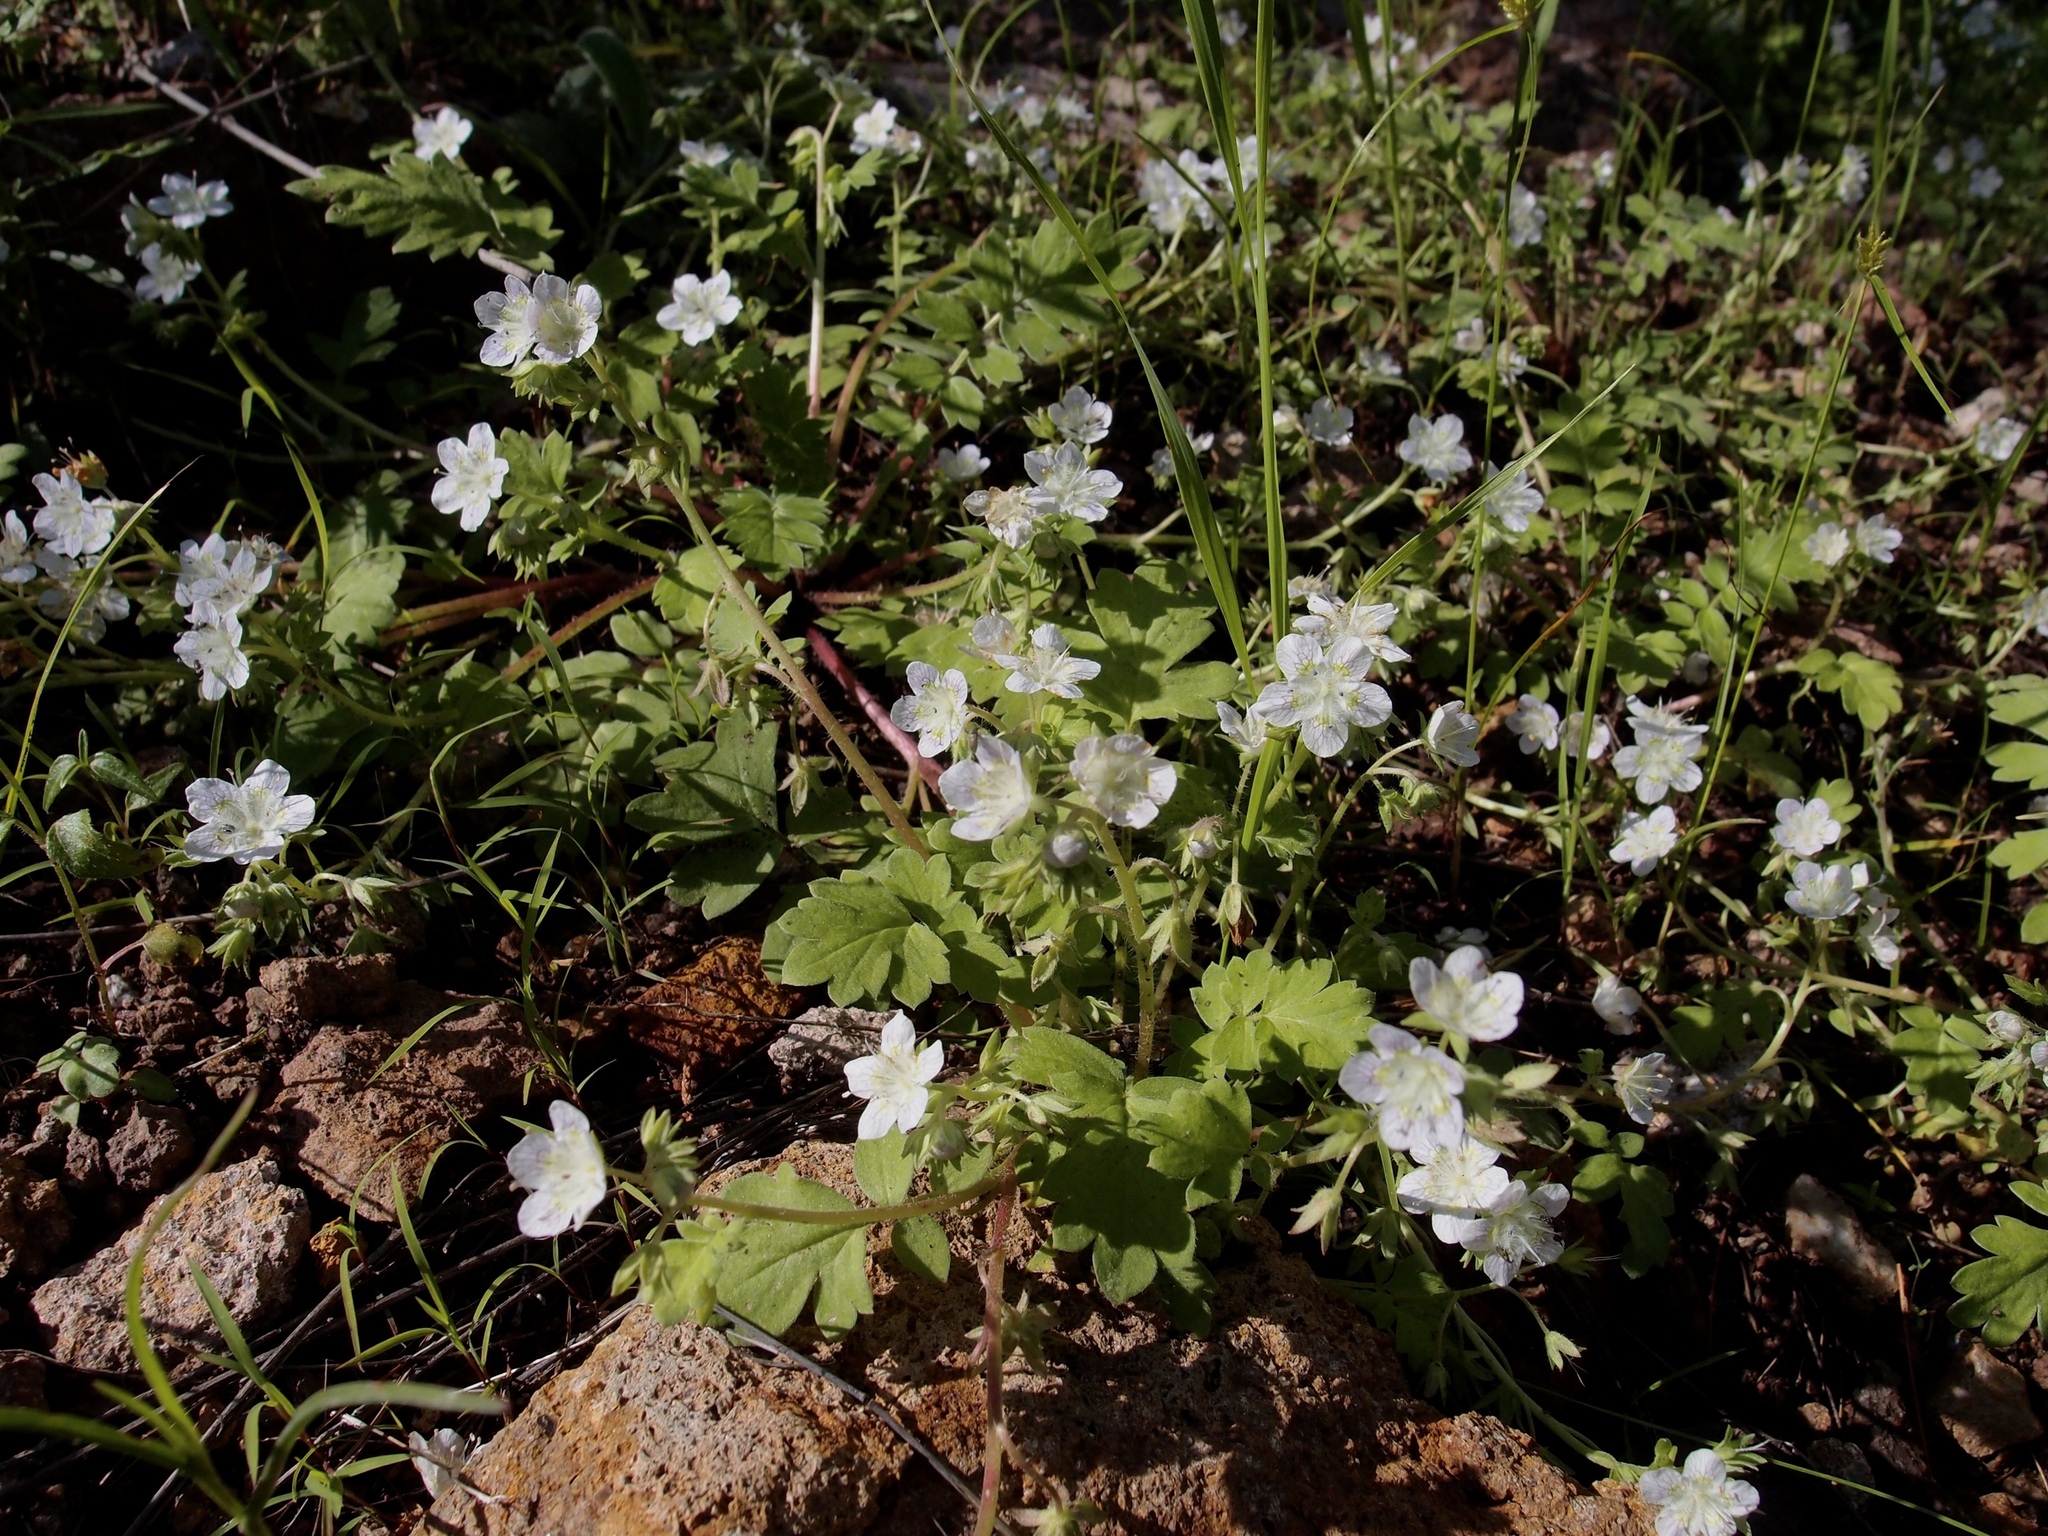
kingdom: Plantae
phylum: Tracheophyta
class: Magnoliopsida
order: Boraginales
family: Hydrophyllaceae
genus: Phacelia
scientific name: Phacelia platycarpa
